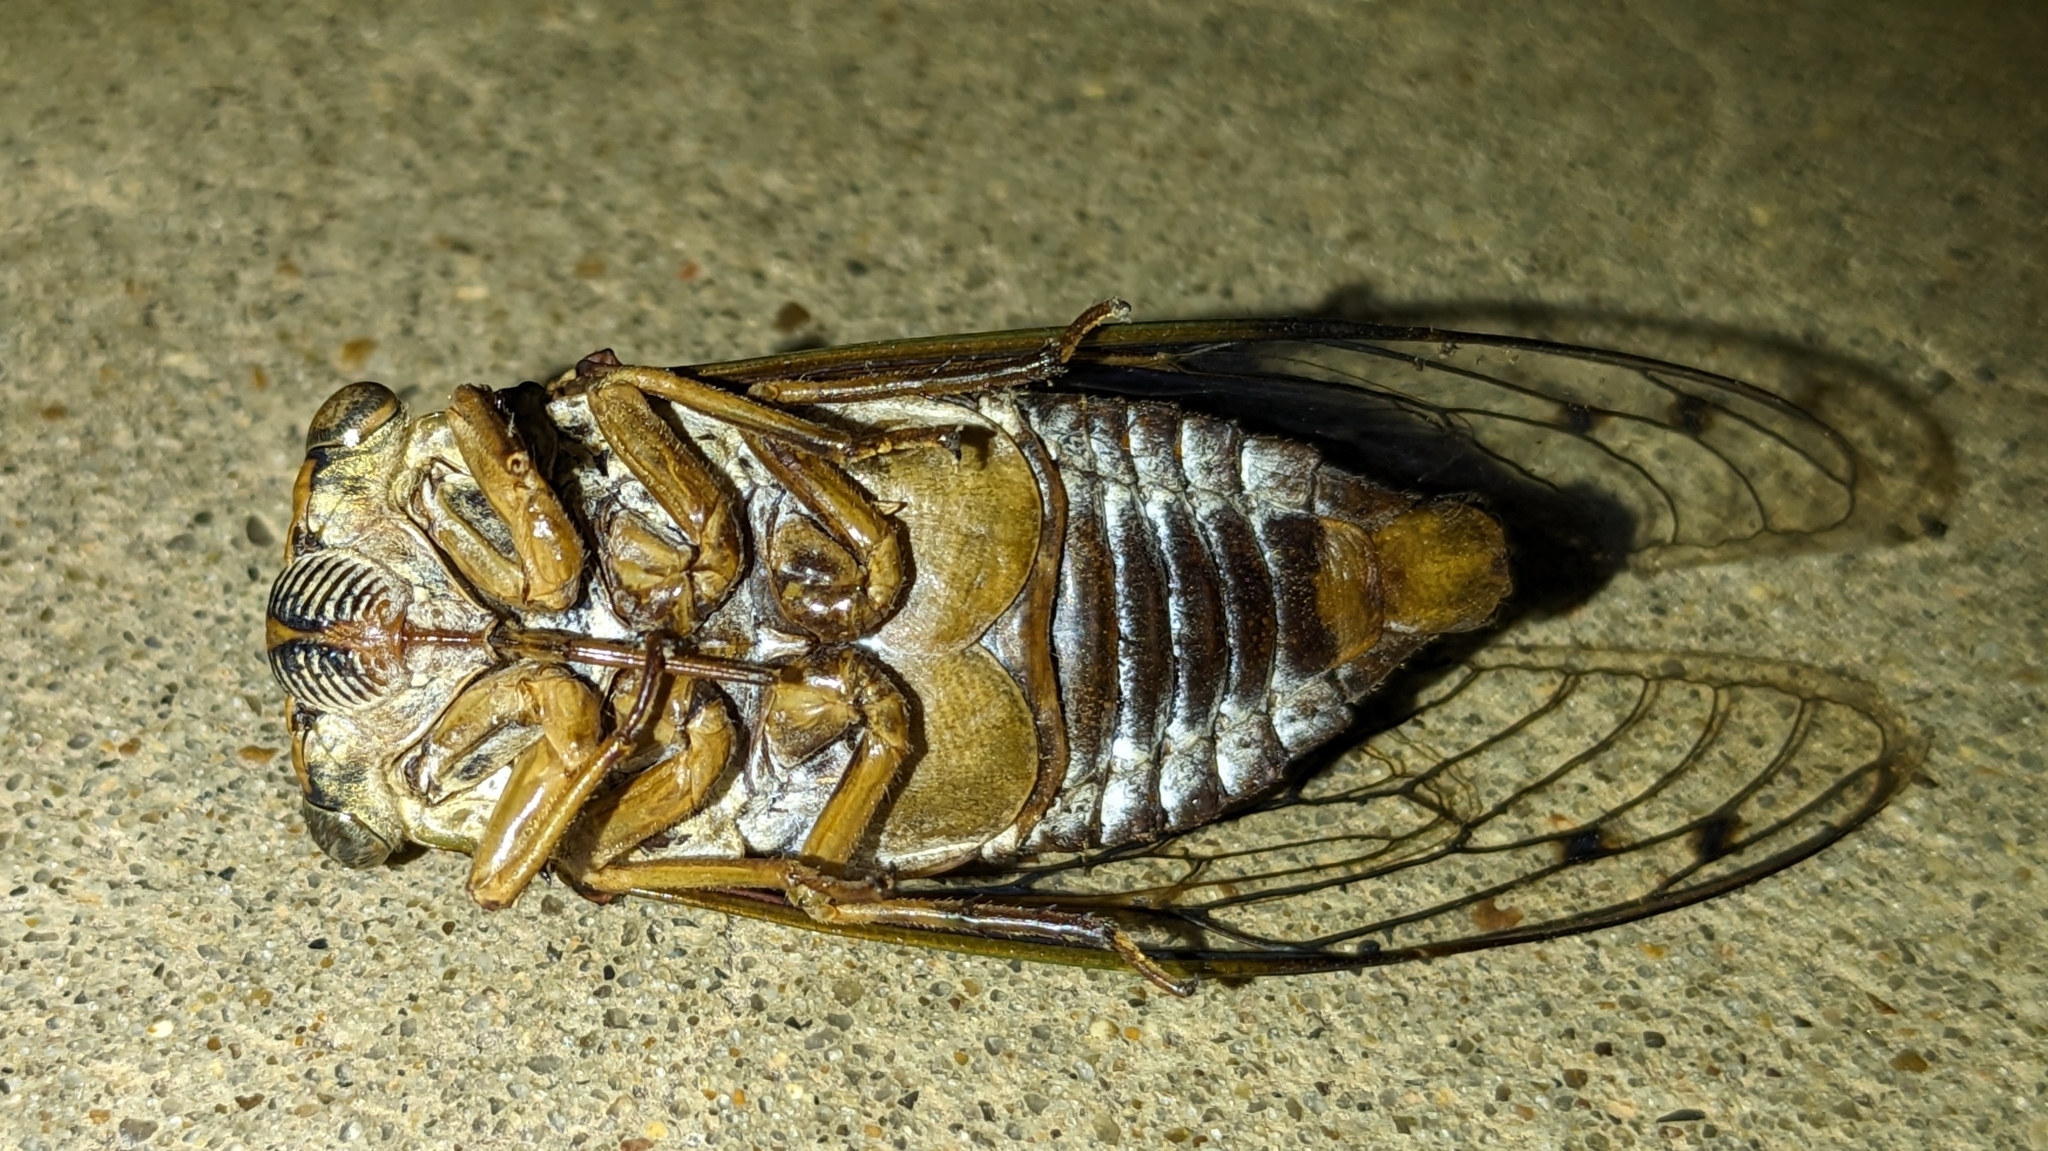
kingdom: Animalia
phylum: Arthropoda
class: Insecta
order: Hemiptera
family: Cicadidae
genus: Megatibicen
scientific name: Megatibicen resh
